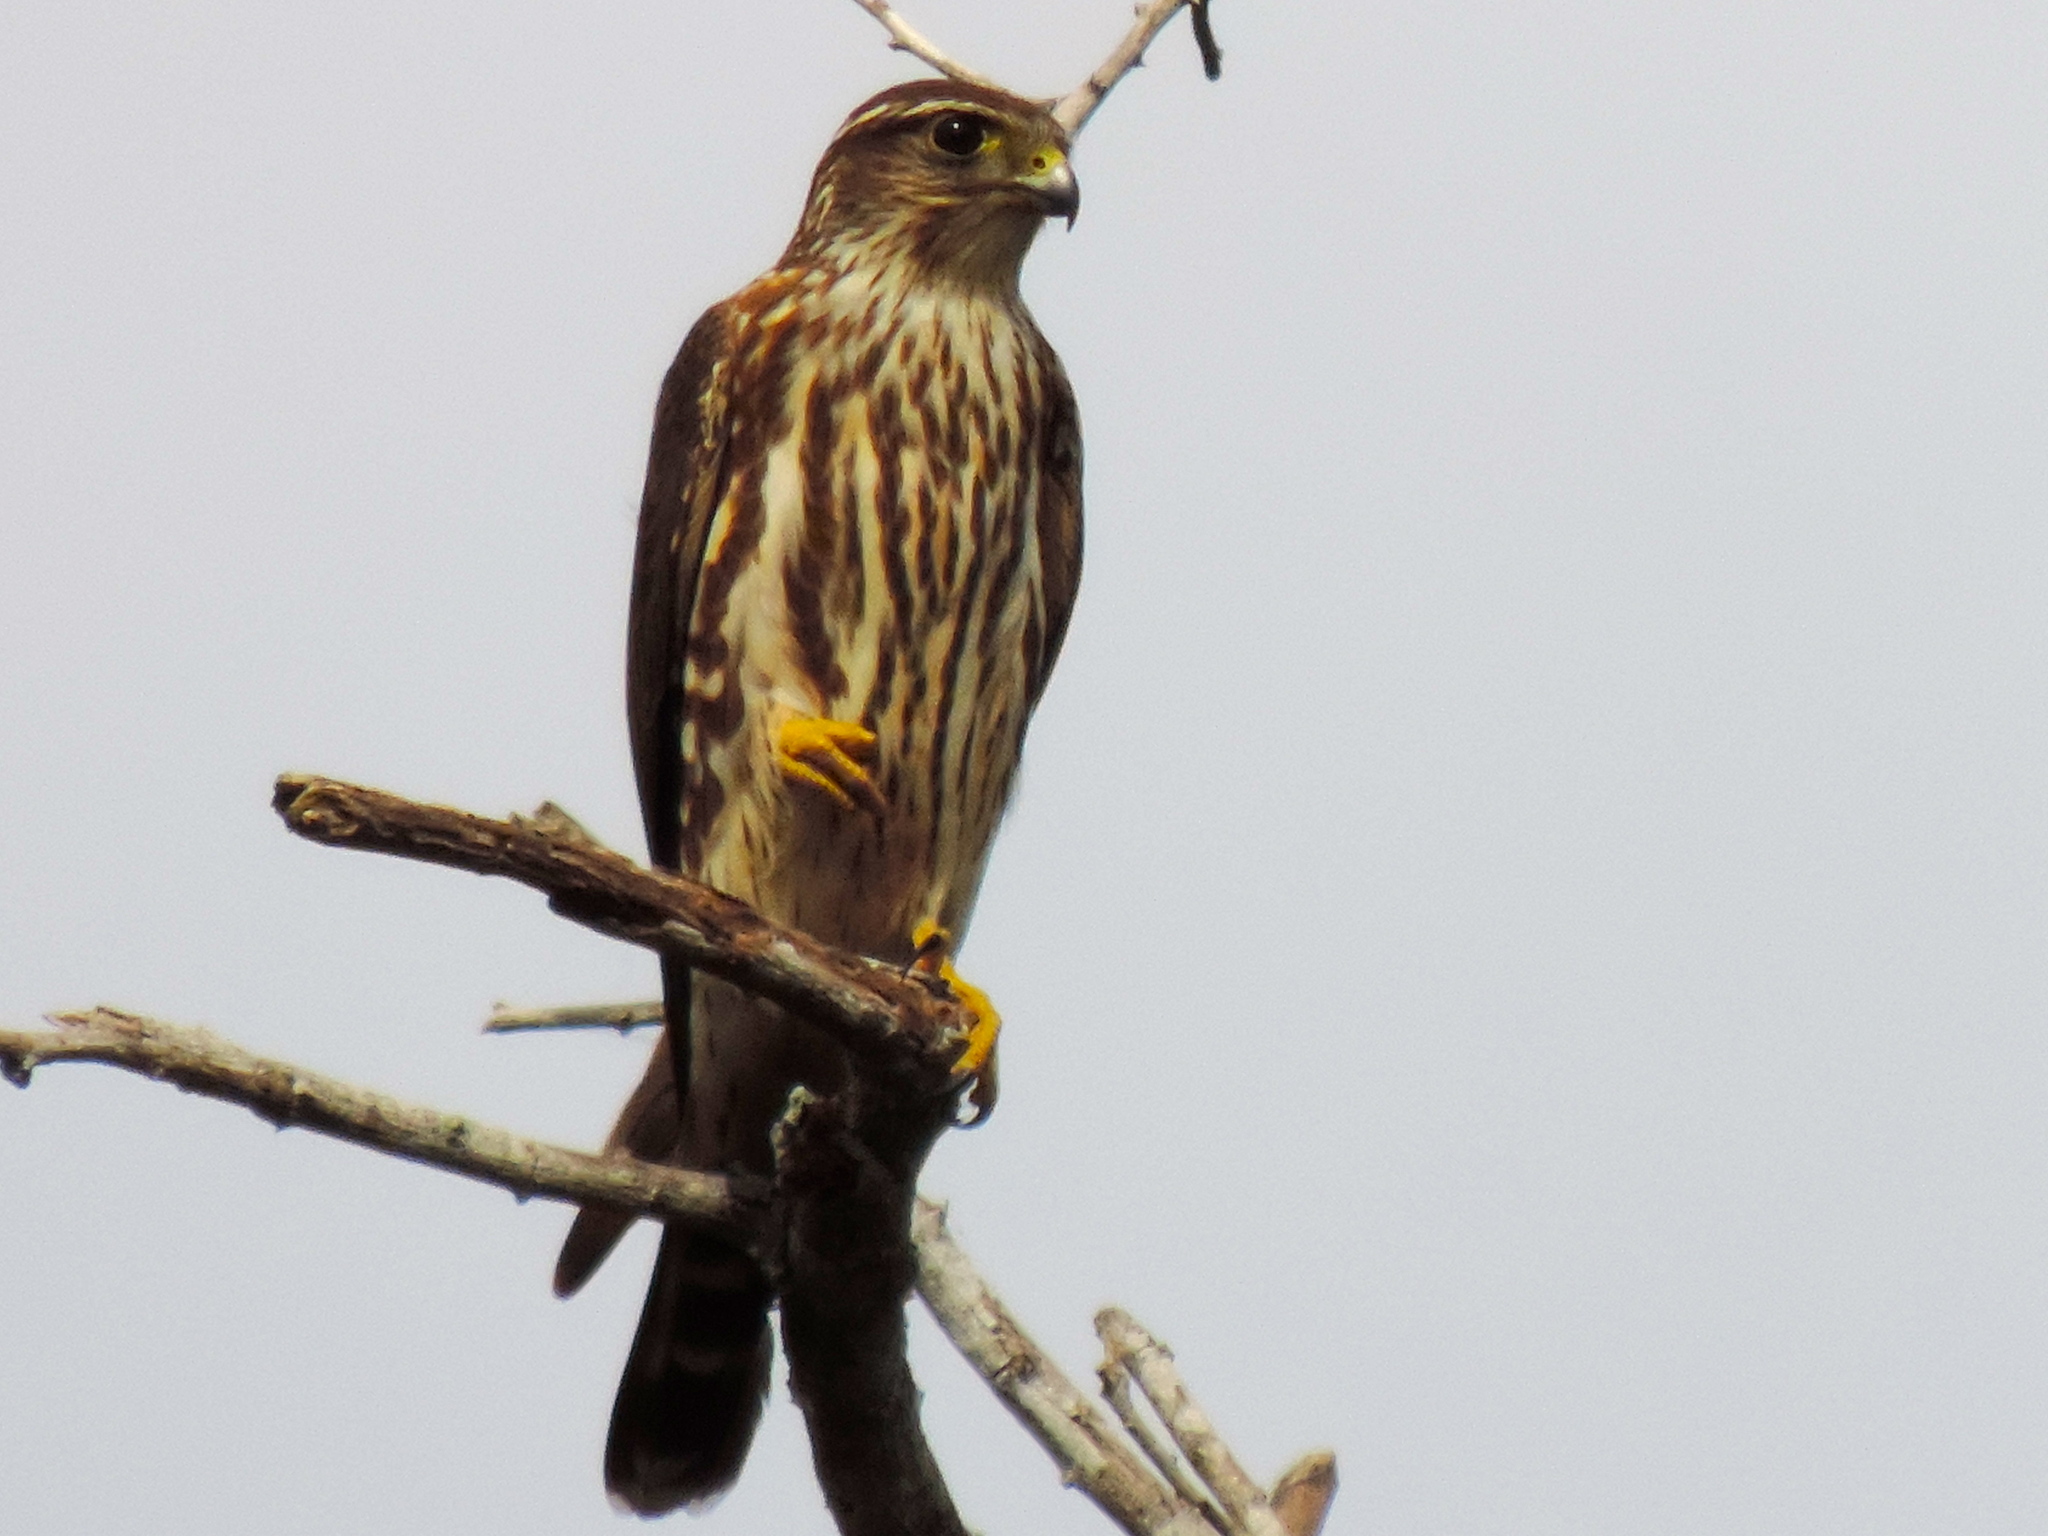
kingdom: Animalia
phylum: Chordata
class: Aves
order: Falconiformes
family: Falconidae
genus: Falco
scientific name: Falco columbarius
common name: Merlin
